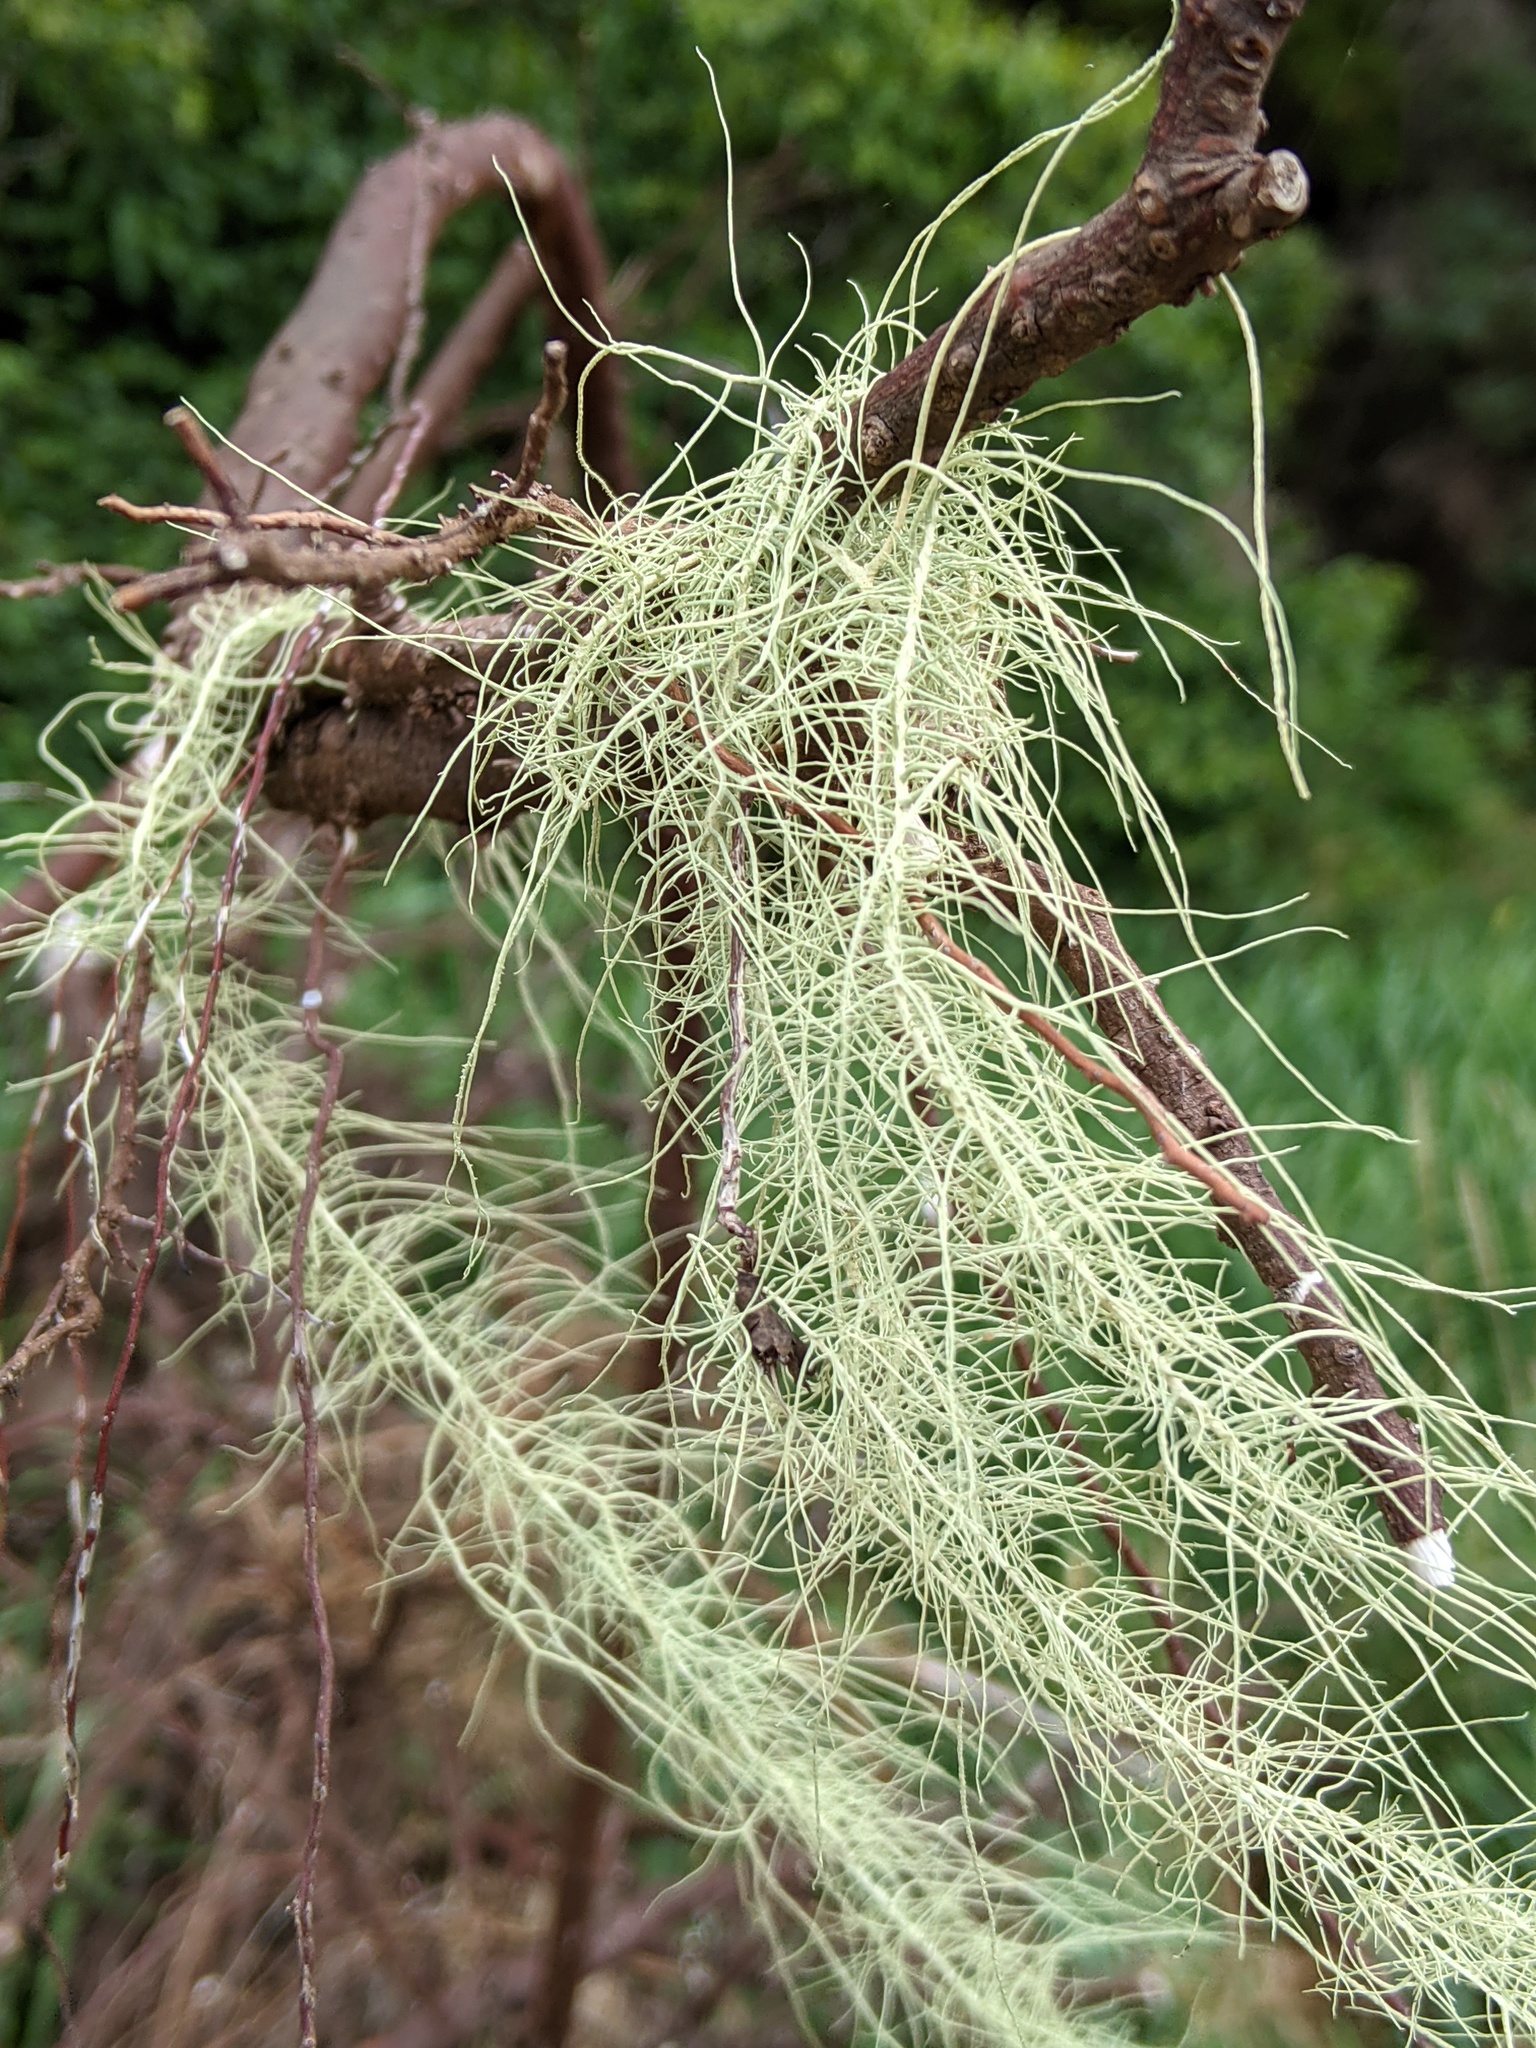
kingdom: Fungi
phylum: Ascomycota
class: Lecanoromycetes
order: Lecanorales
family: Parmeliaceae
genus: Dolichousnea
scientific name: Dolichousnea longissima
